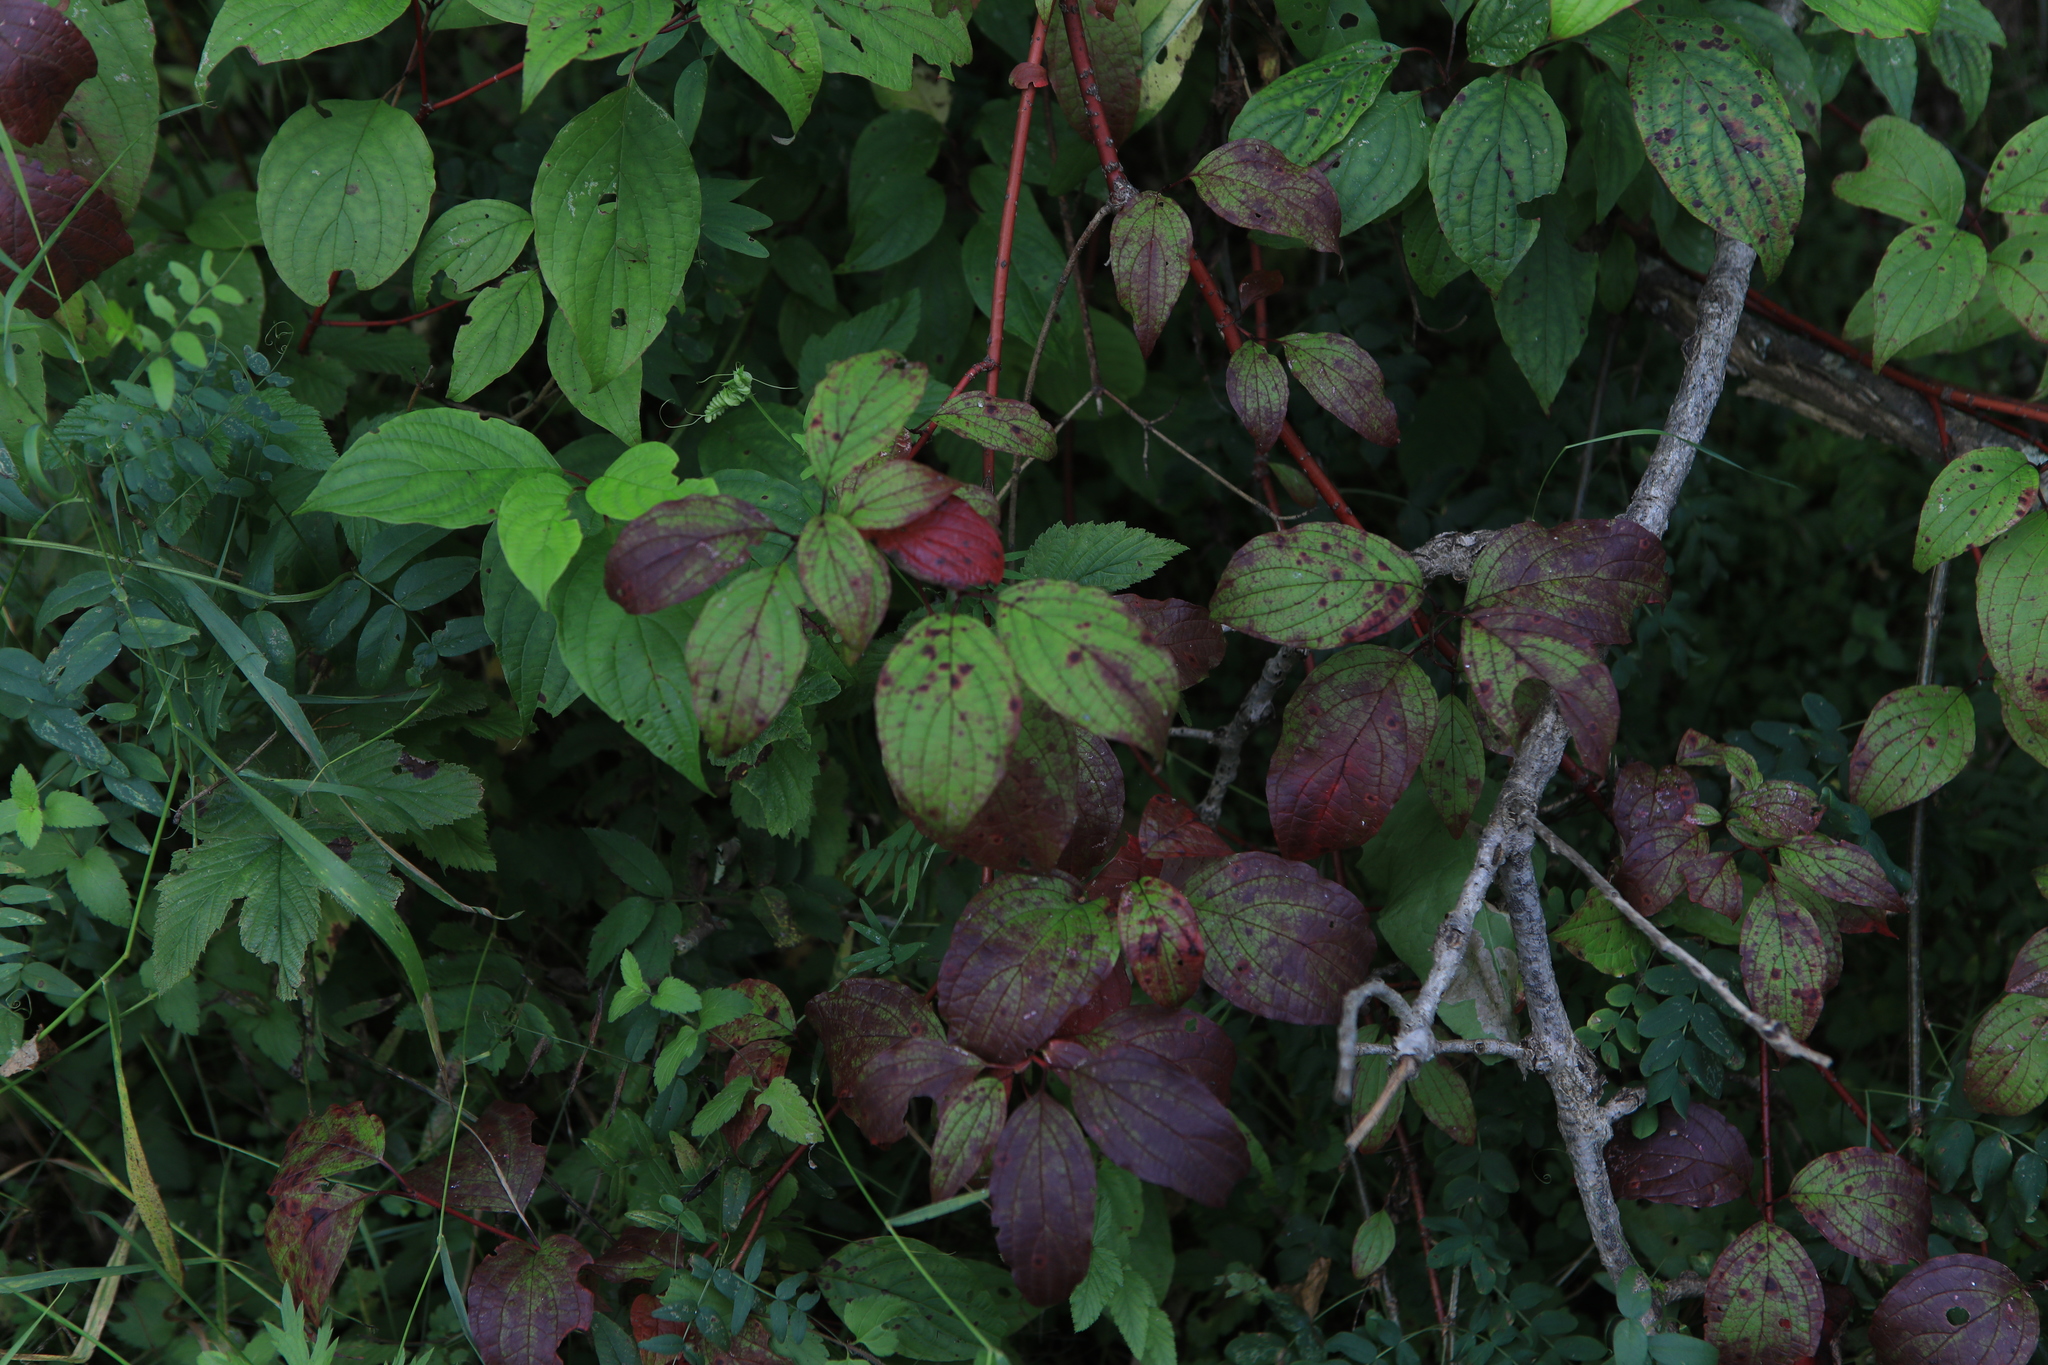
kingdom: Plantae
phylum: Tracheophyta
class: Magnoliopsida
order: Cornales
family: Cornaceae
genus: Cornus
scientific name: Cornus alba
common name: White dogwood
